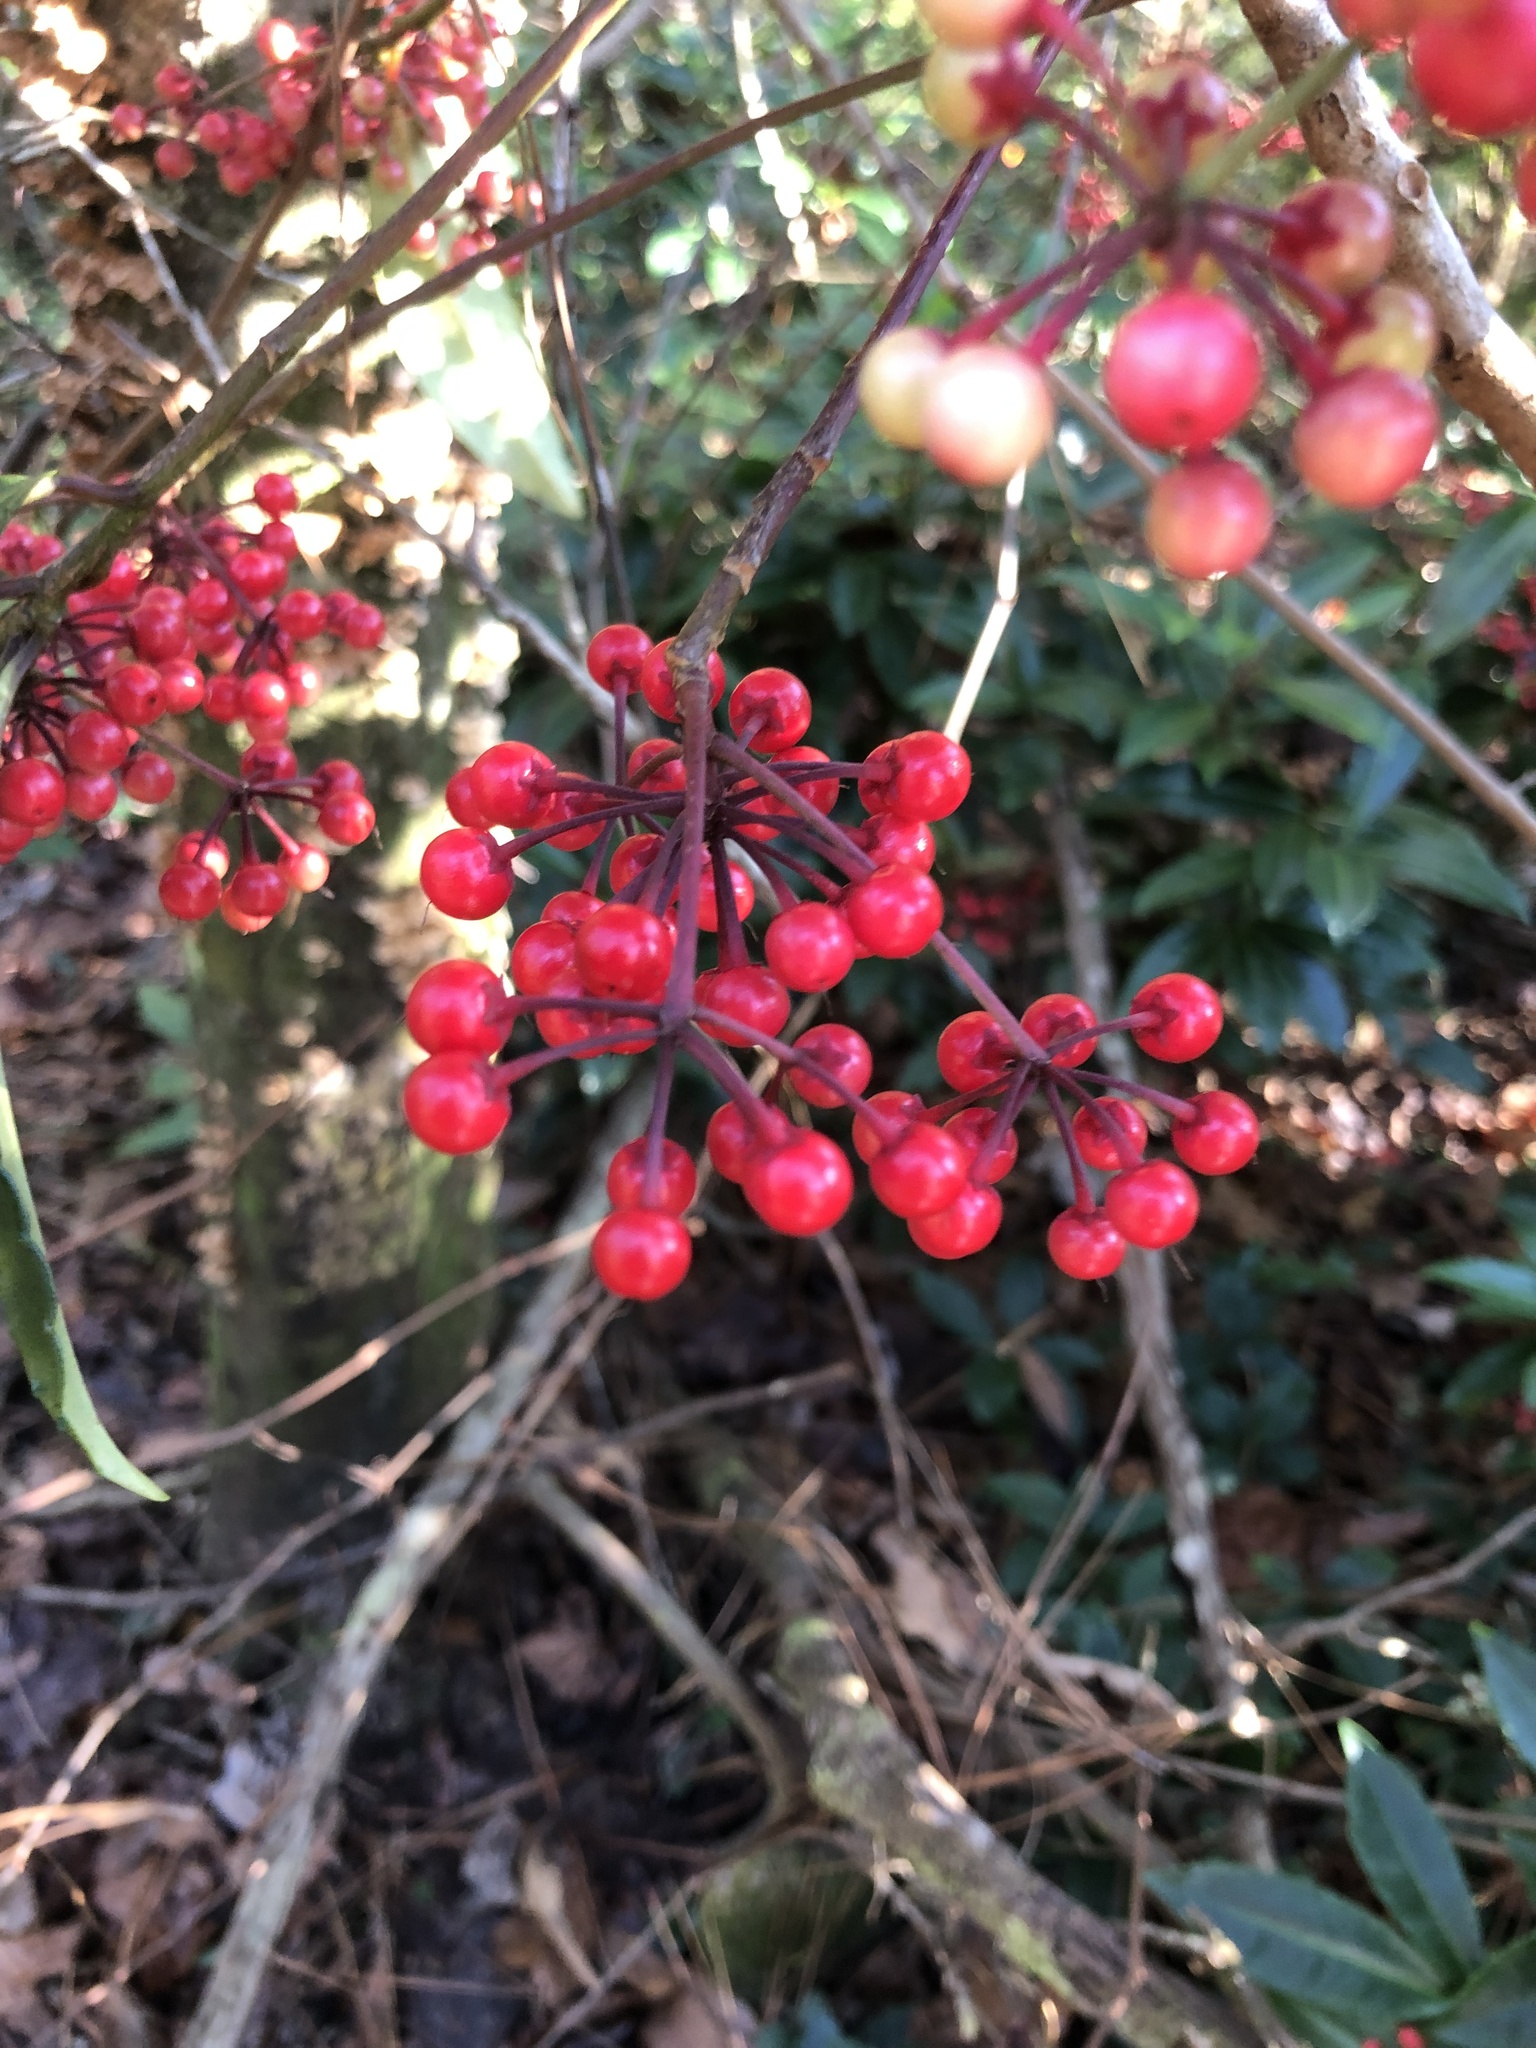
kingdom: Plantae
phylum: Tracheophyta
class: Magnoliopsida
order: Ericales
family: Primulaceae
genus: Ardisia
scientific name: Ardisia crenata
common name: Hen's eyes
